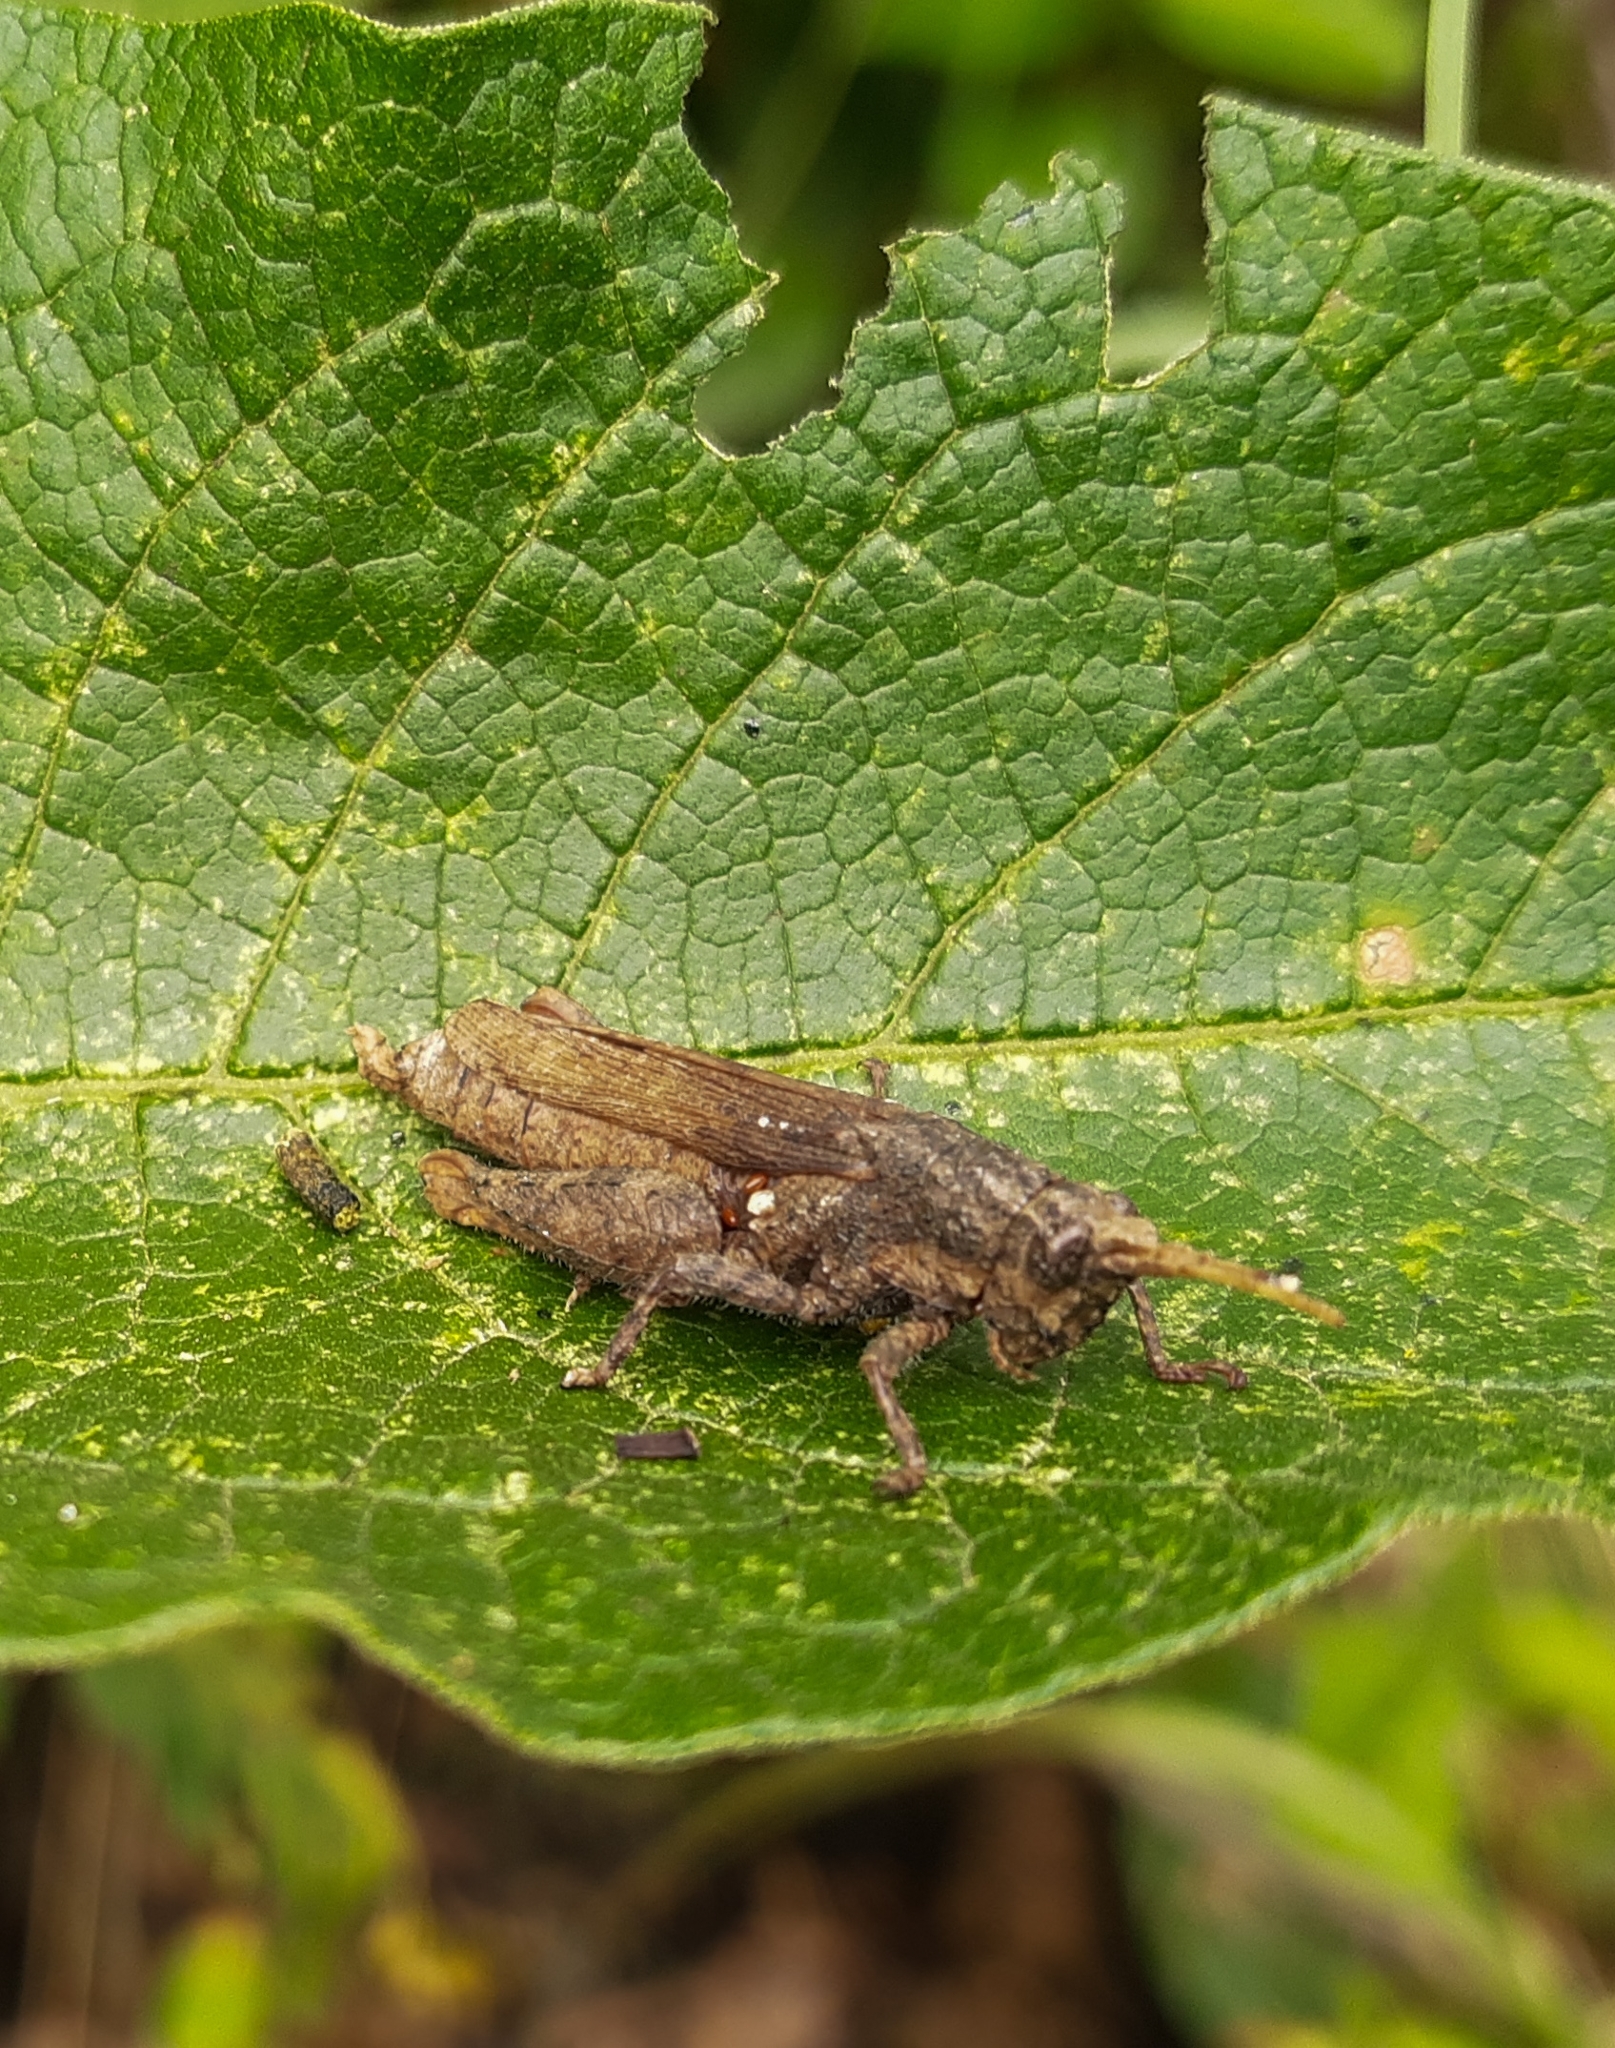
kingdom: Animalia
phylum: Arthropoda
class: Insecta
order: Orthoptera
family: Acrididae
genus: Vilerna
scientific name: Vilerna rugulosa
